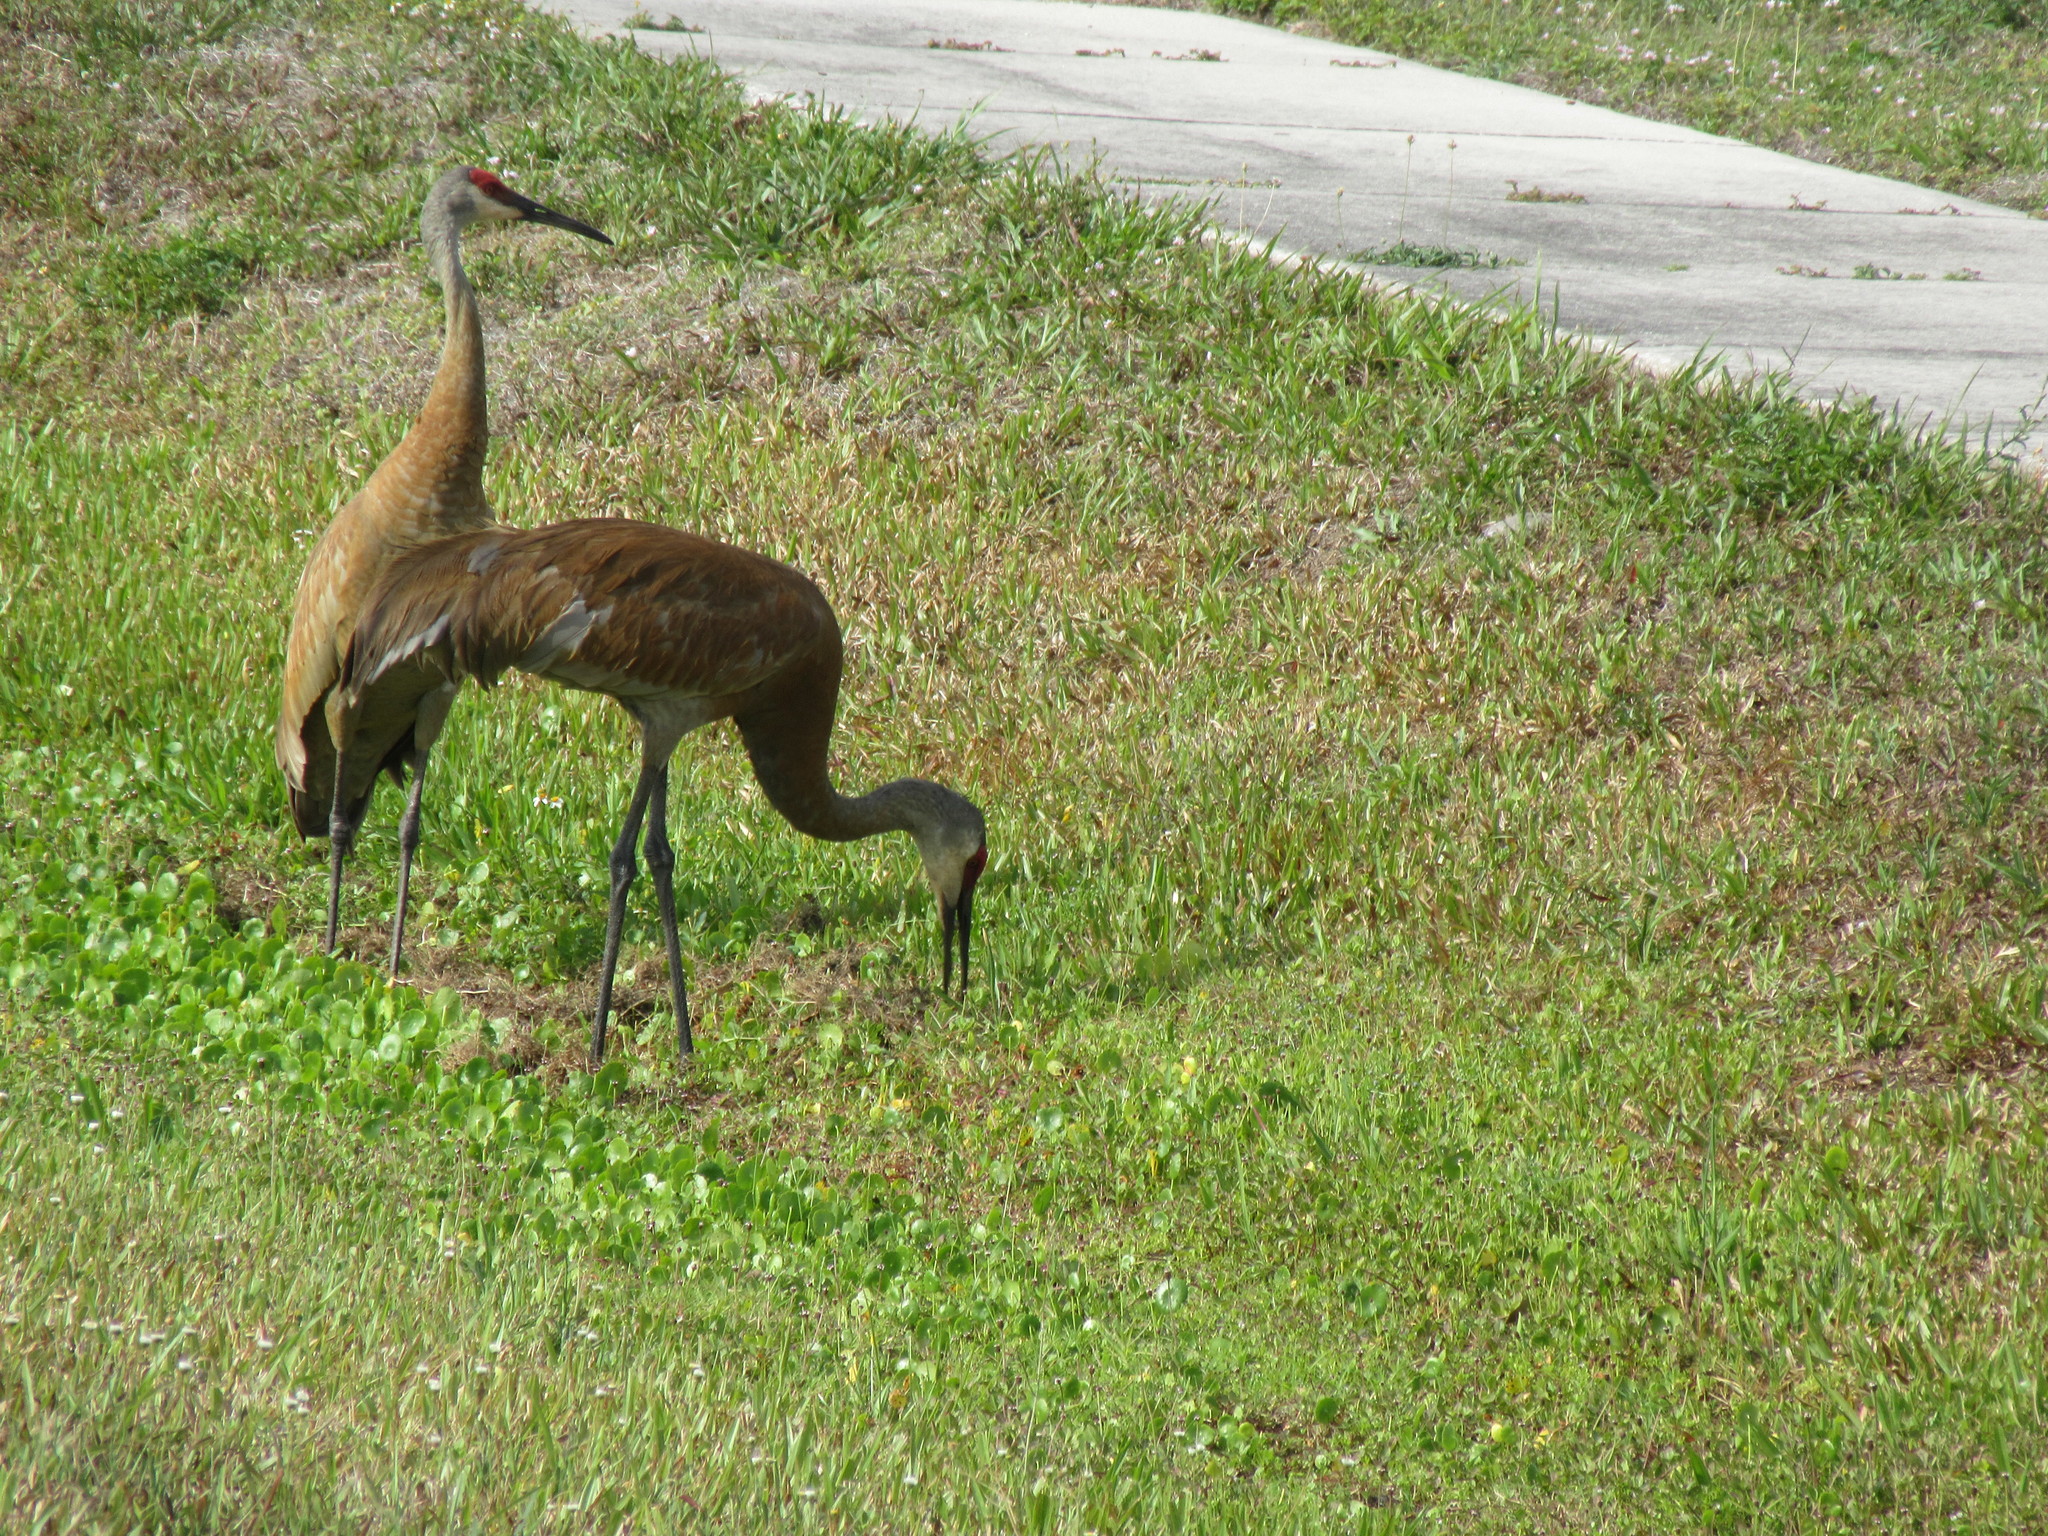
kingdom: Animalia
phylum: Chordata
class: Aves
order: Gruiformes
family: Gruidae
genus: Grus
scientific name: Grus canadensis
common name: Sandhill crane
